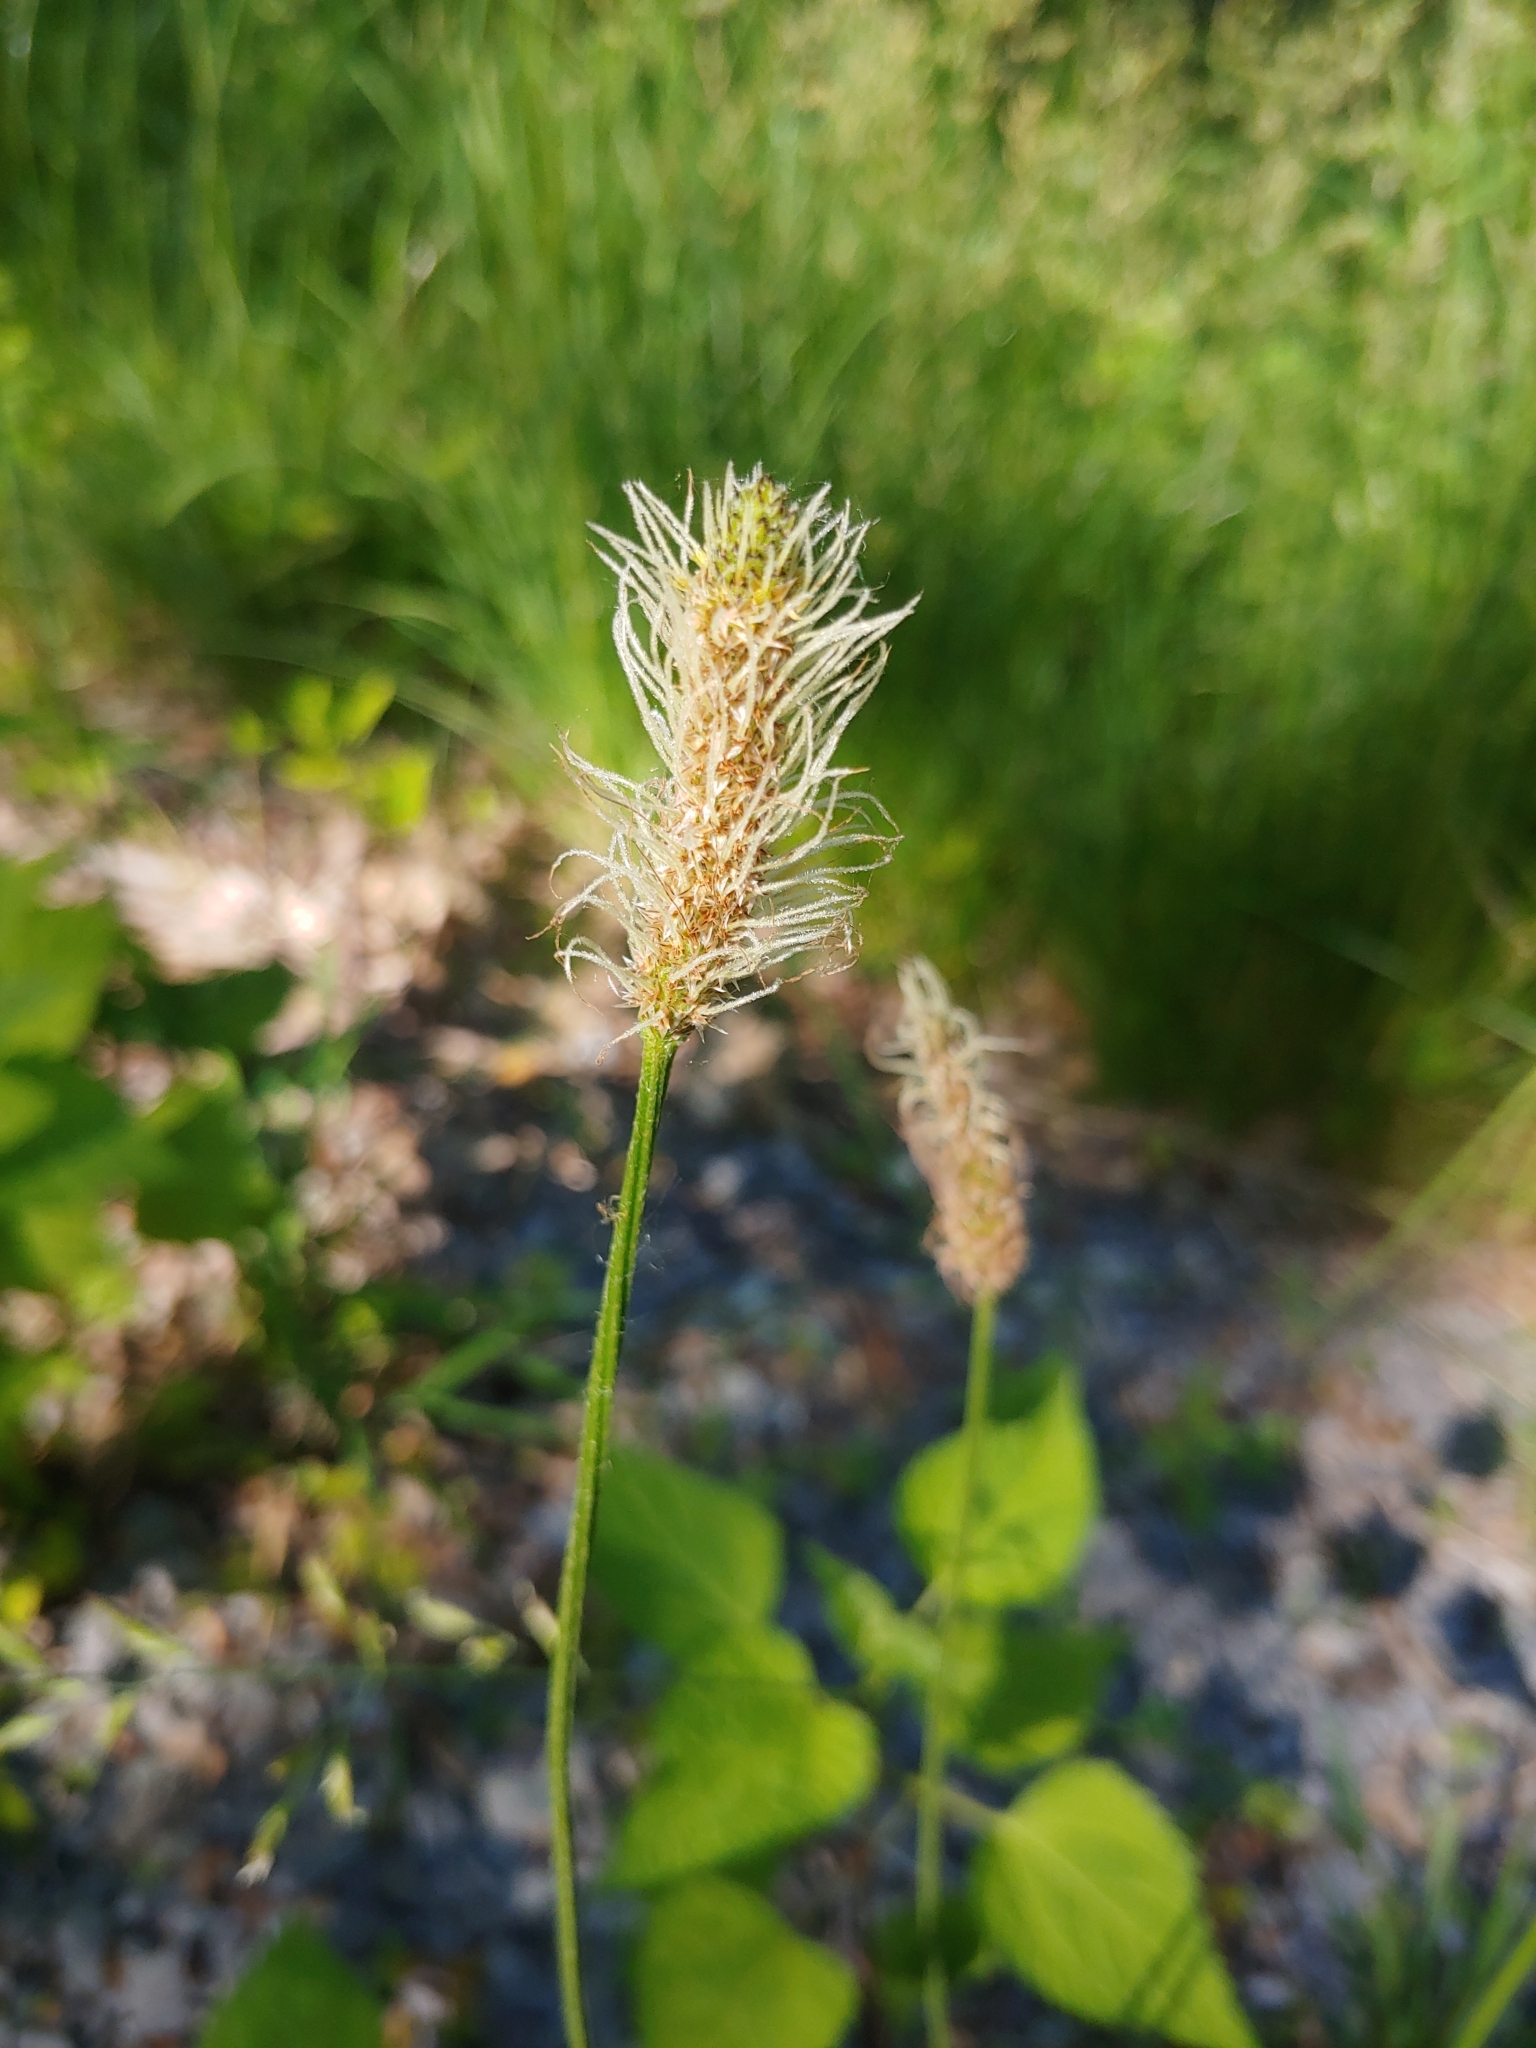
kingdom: Plantae
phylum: Tracheophyta
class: Magnoliopsida
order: Lamiales
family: Plantaginaceae
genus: Plantago
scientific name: Plantago lanceolata
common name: Ribwort plantain
